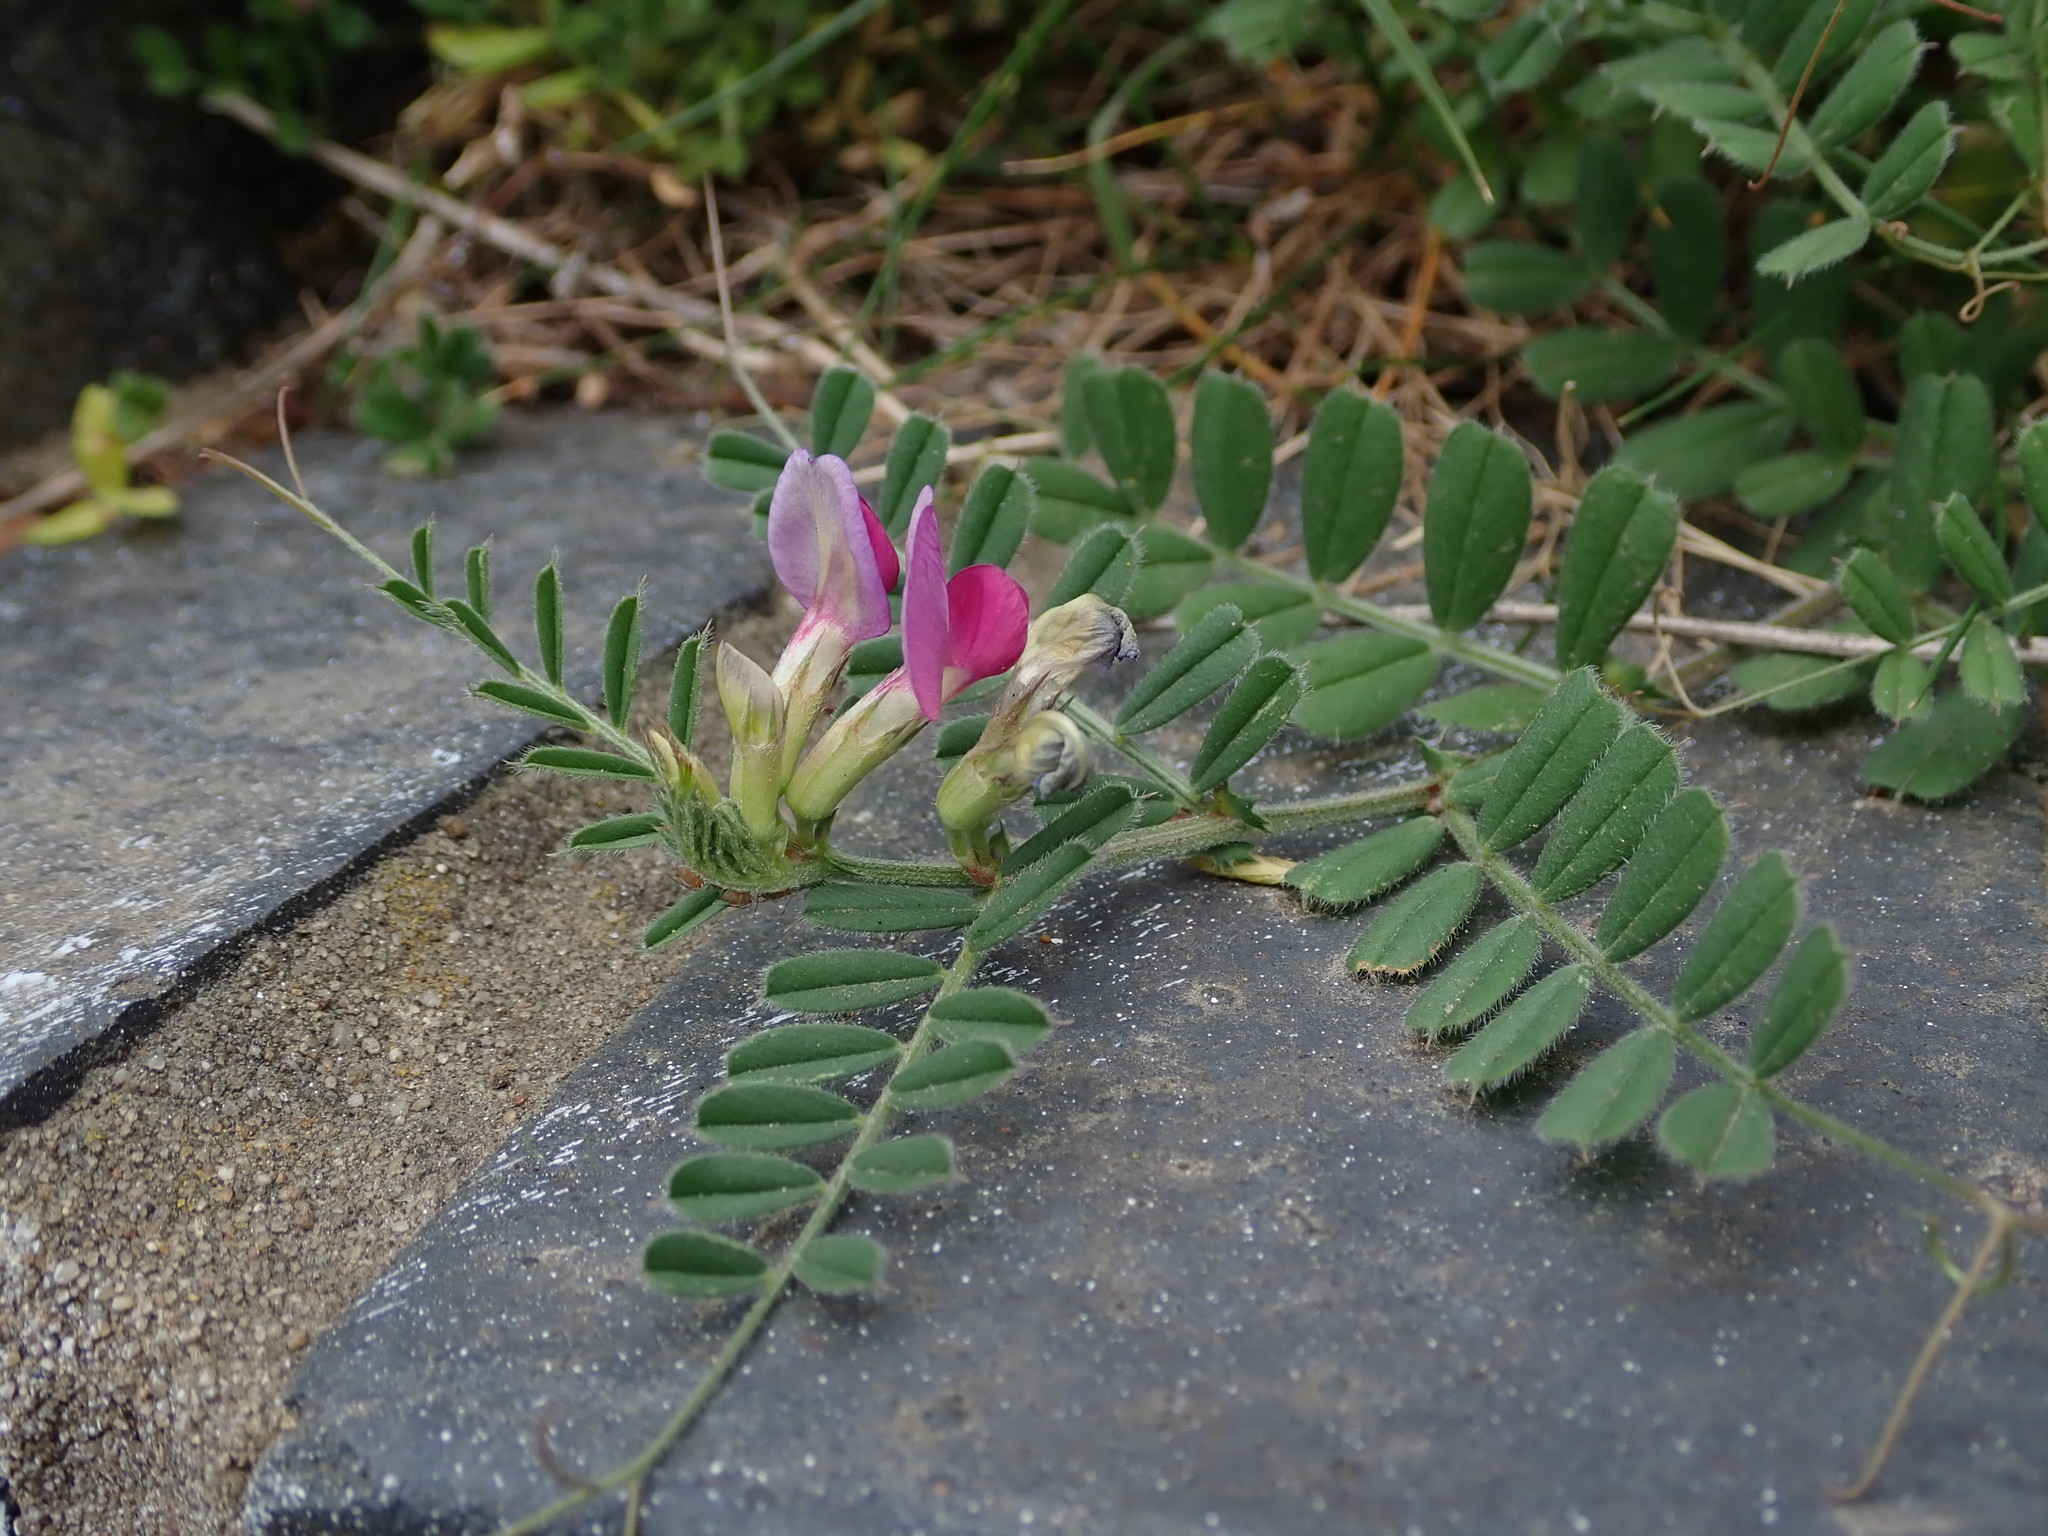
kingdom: Plantae
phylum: Tracheophyta
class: Magnoliopsida
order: Fabales
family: Fabaceae
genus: Vicia
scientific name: Vicia sativa
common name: Garden vetch
